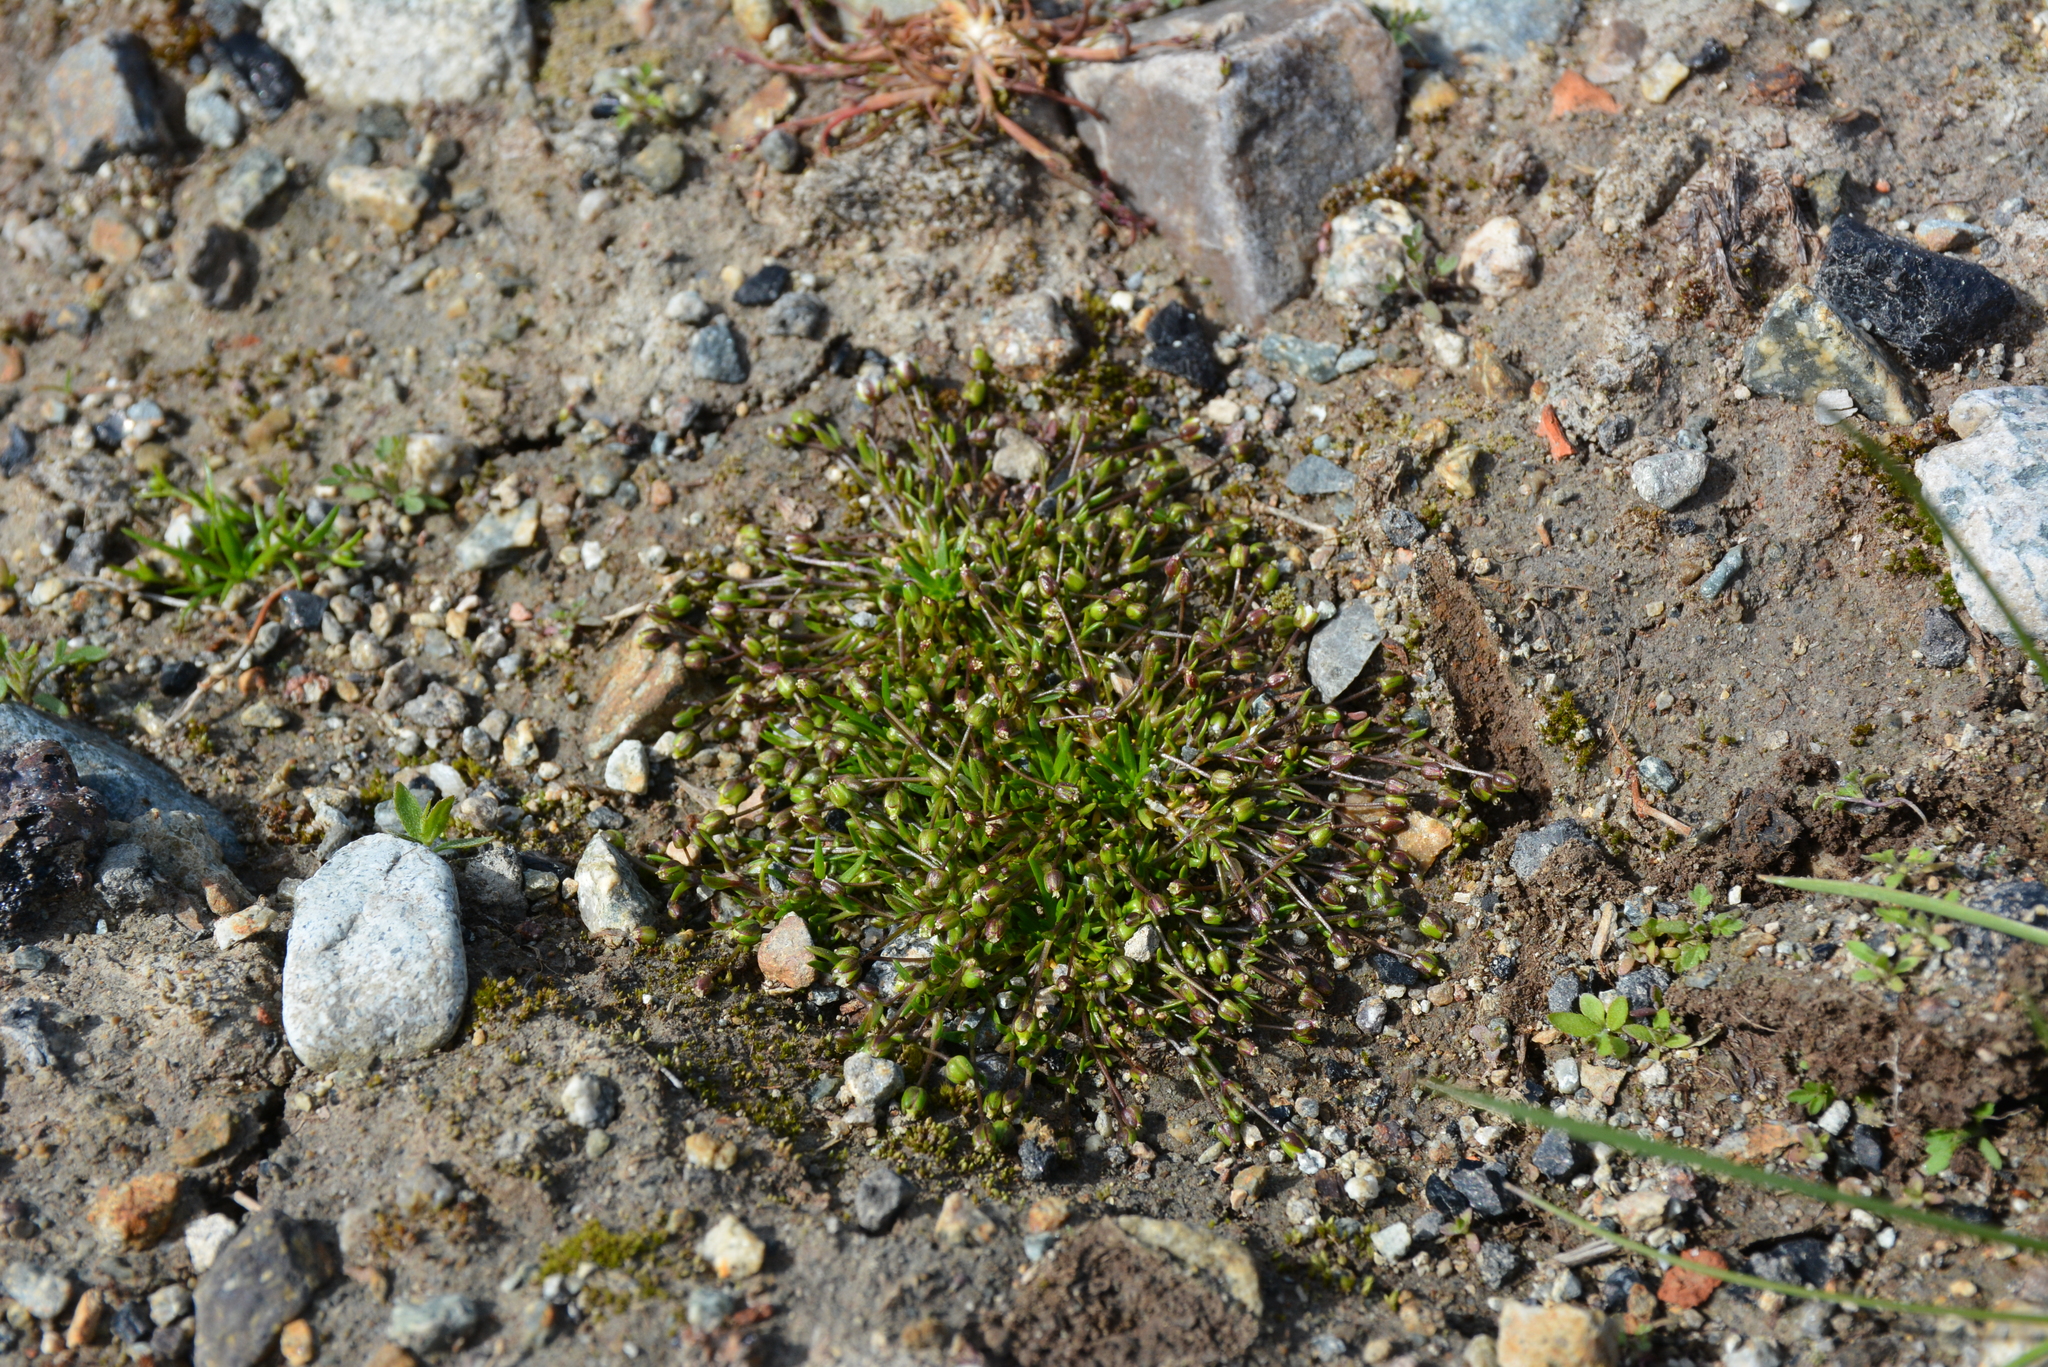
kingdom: Plantae
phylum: Tracheophyta
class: Magnoliopsida
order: Caryophyllales
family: Caryophyllaceae
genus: Sagina
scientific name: Sagina nivalis
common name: Snow pearlwort
